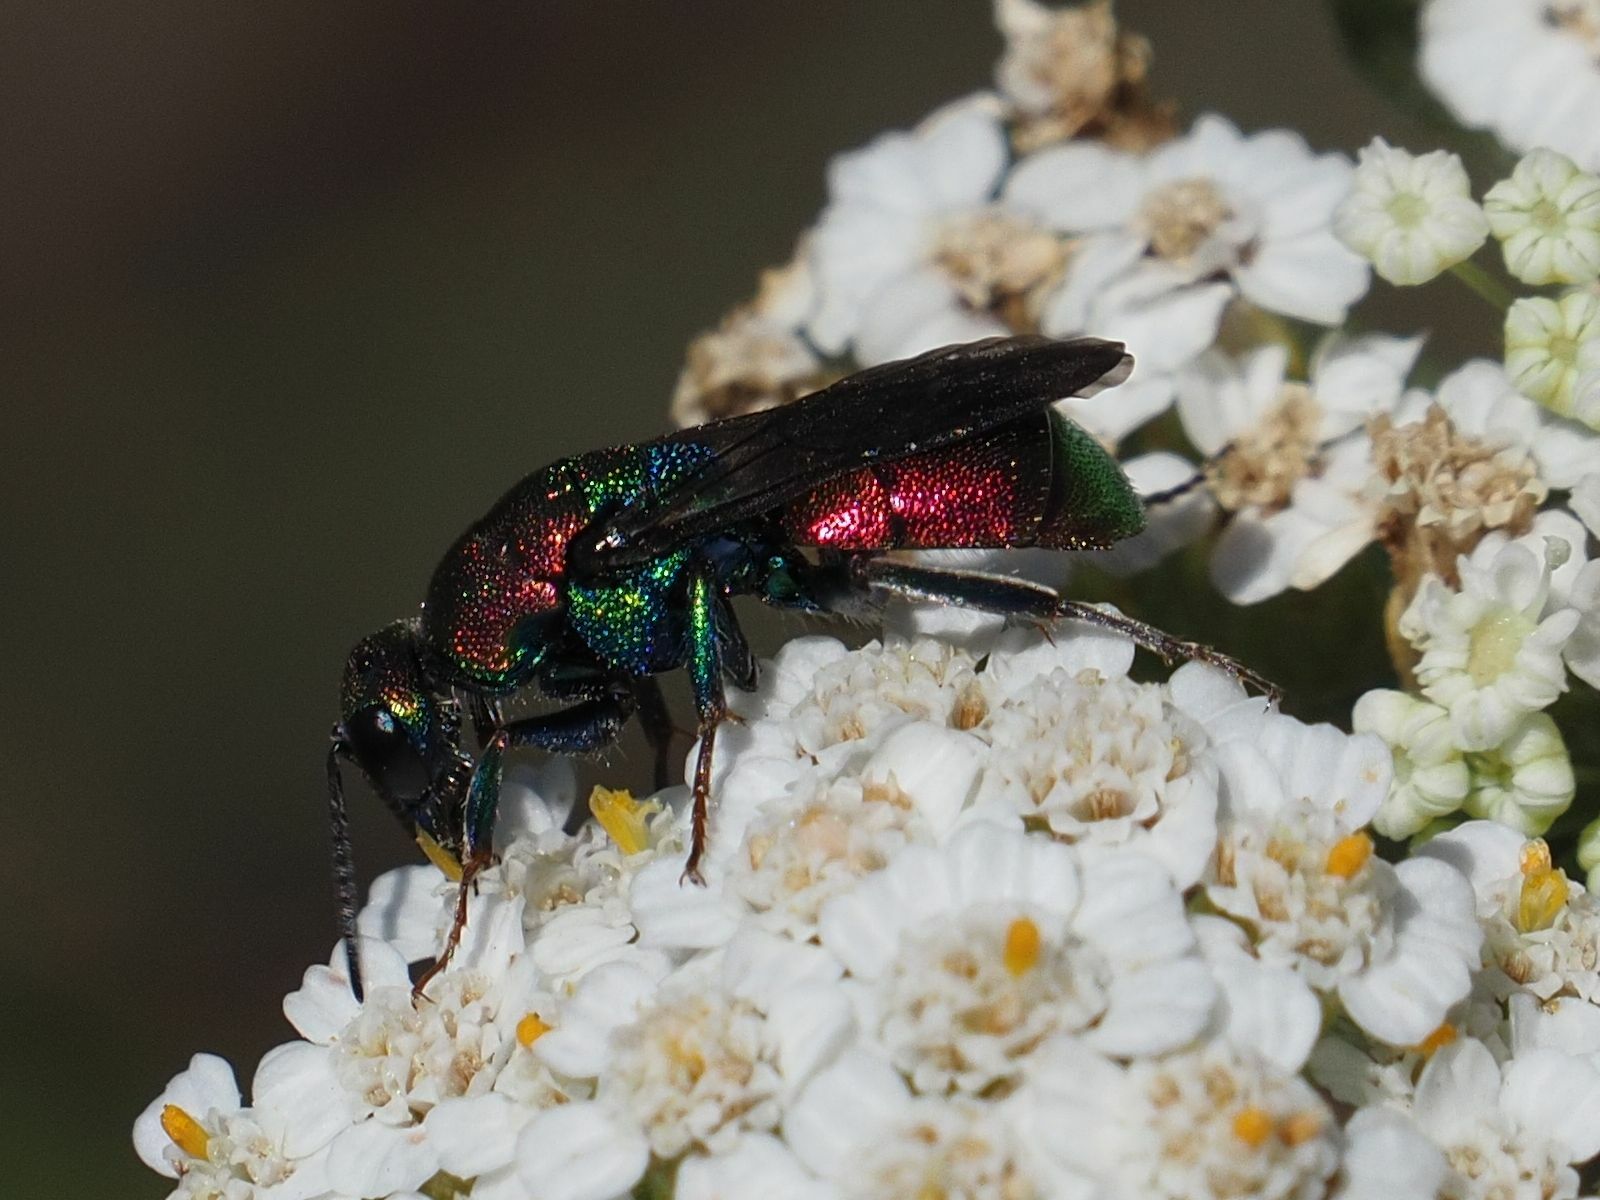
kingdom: Animalia
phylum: Arthropoda
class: Insecta
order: Hymenoptera
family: Chrysididae
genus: Hedychrum
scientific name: Hedychrum rutilans
